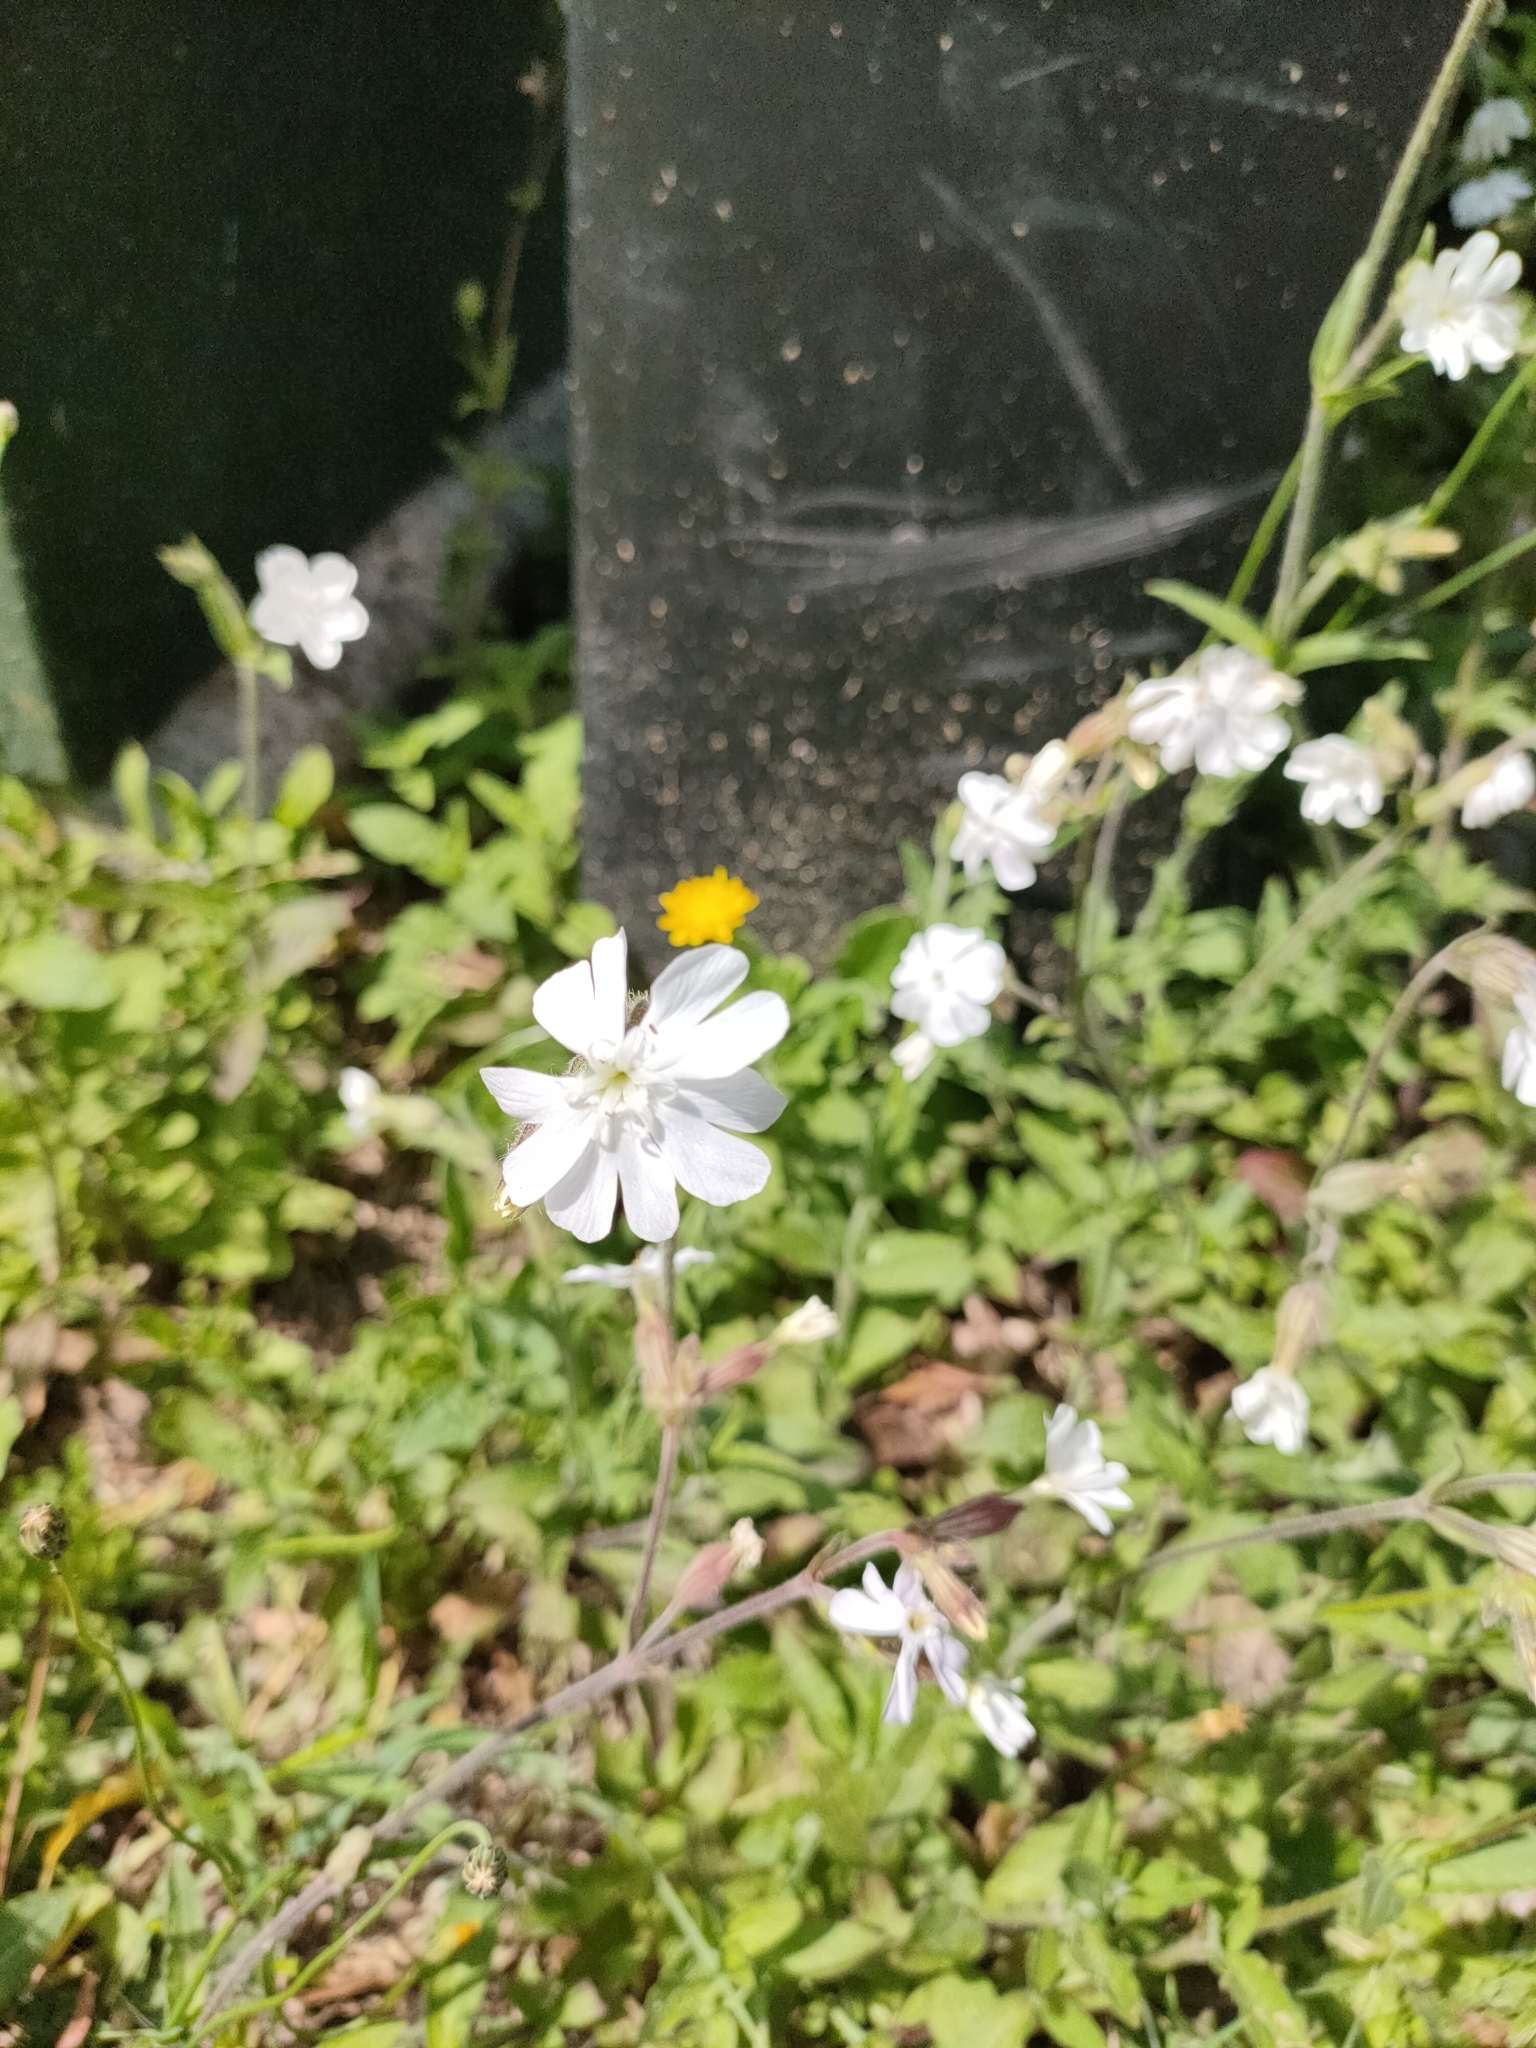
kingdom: Plantae
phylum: Tracheophyta
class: Magnoliopsida
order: Caryophyllales
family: Caryophyllaceae
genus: Silene
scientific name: Silene latifolia
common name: White campion
